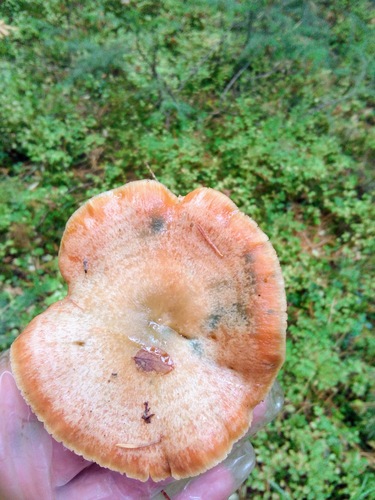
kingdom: Fungi
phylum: Basidiomycota
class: Agaricomycetes
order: Russulales
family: Russulaceae
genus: Lactarius
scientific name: Lactarius deliciosus
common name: Saffron milk-cap
